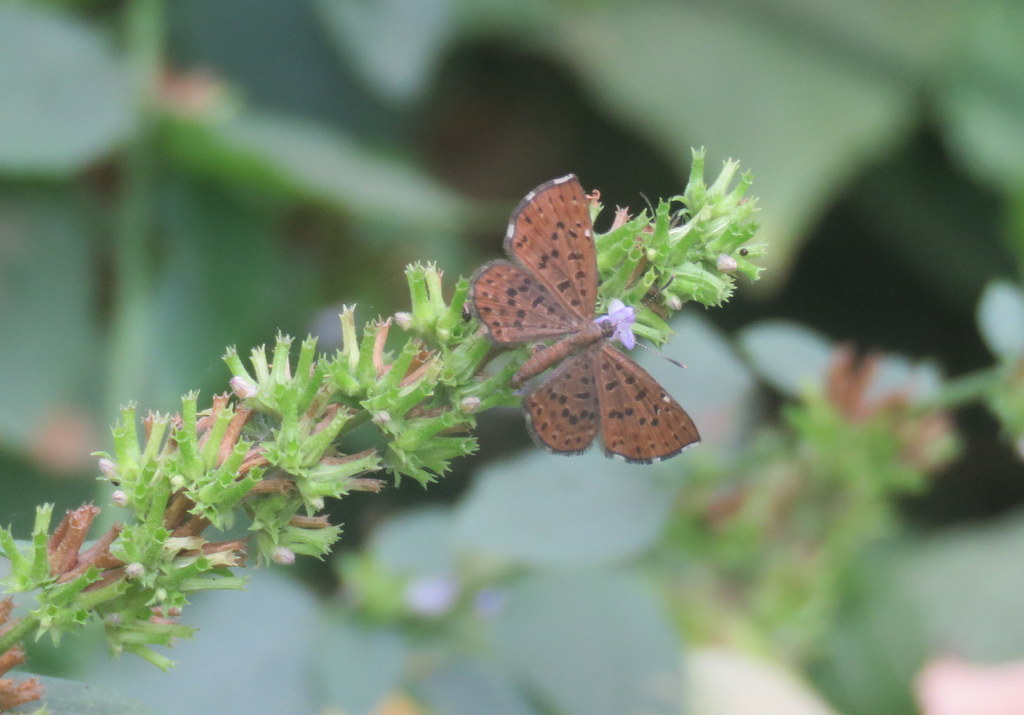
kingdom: Animalia
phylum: Arthropoda
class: Insecta
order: Lepidoptera
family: Riodinidae
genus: Teenie
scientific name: Teenie tinea
